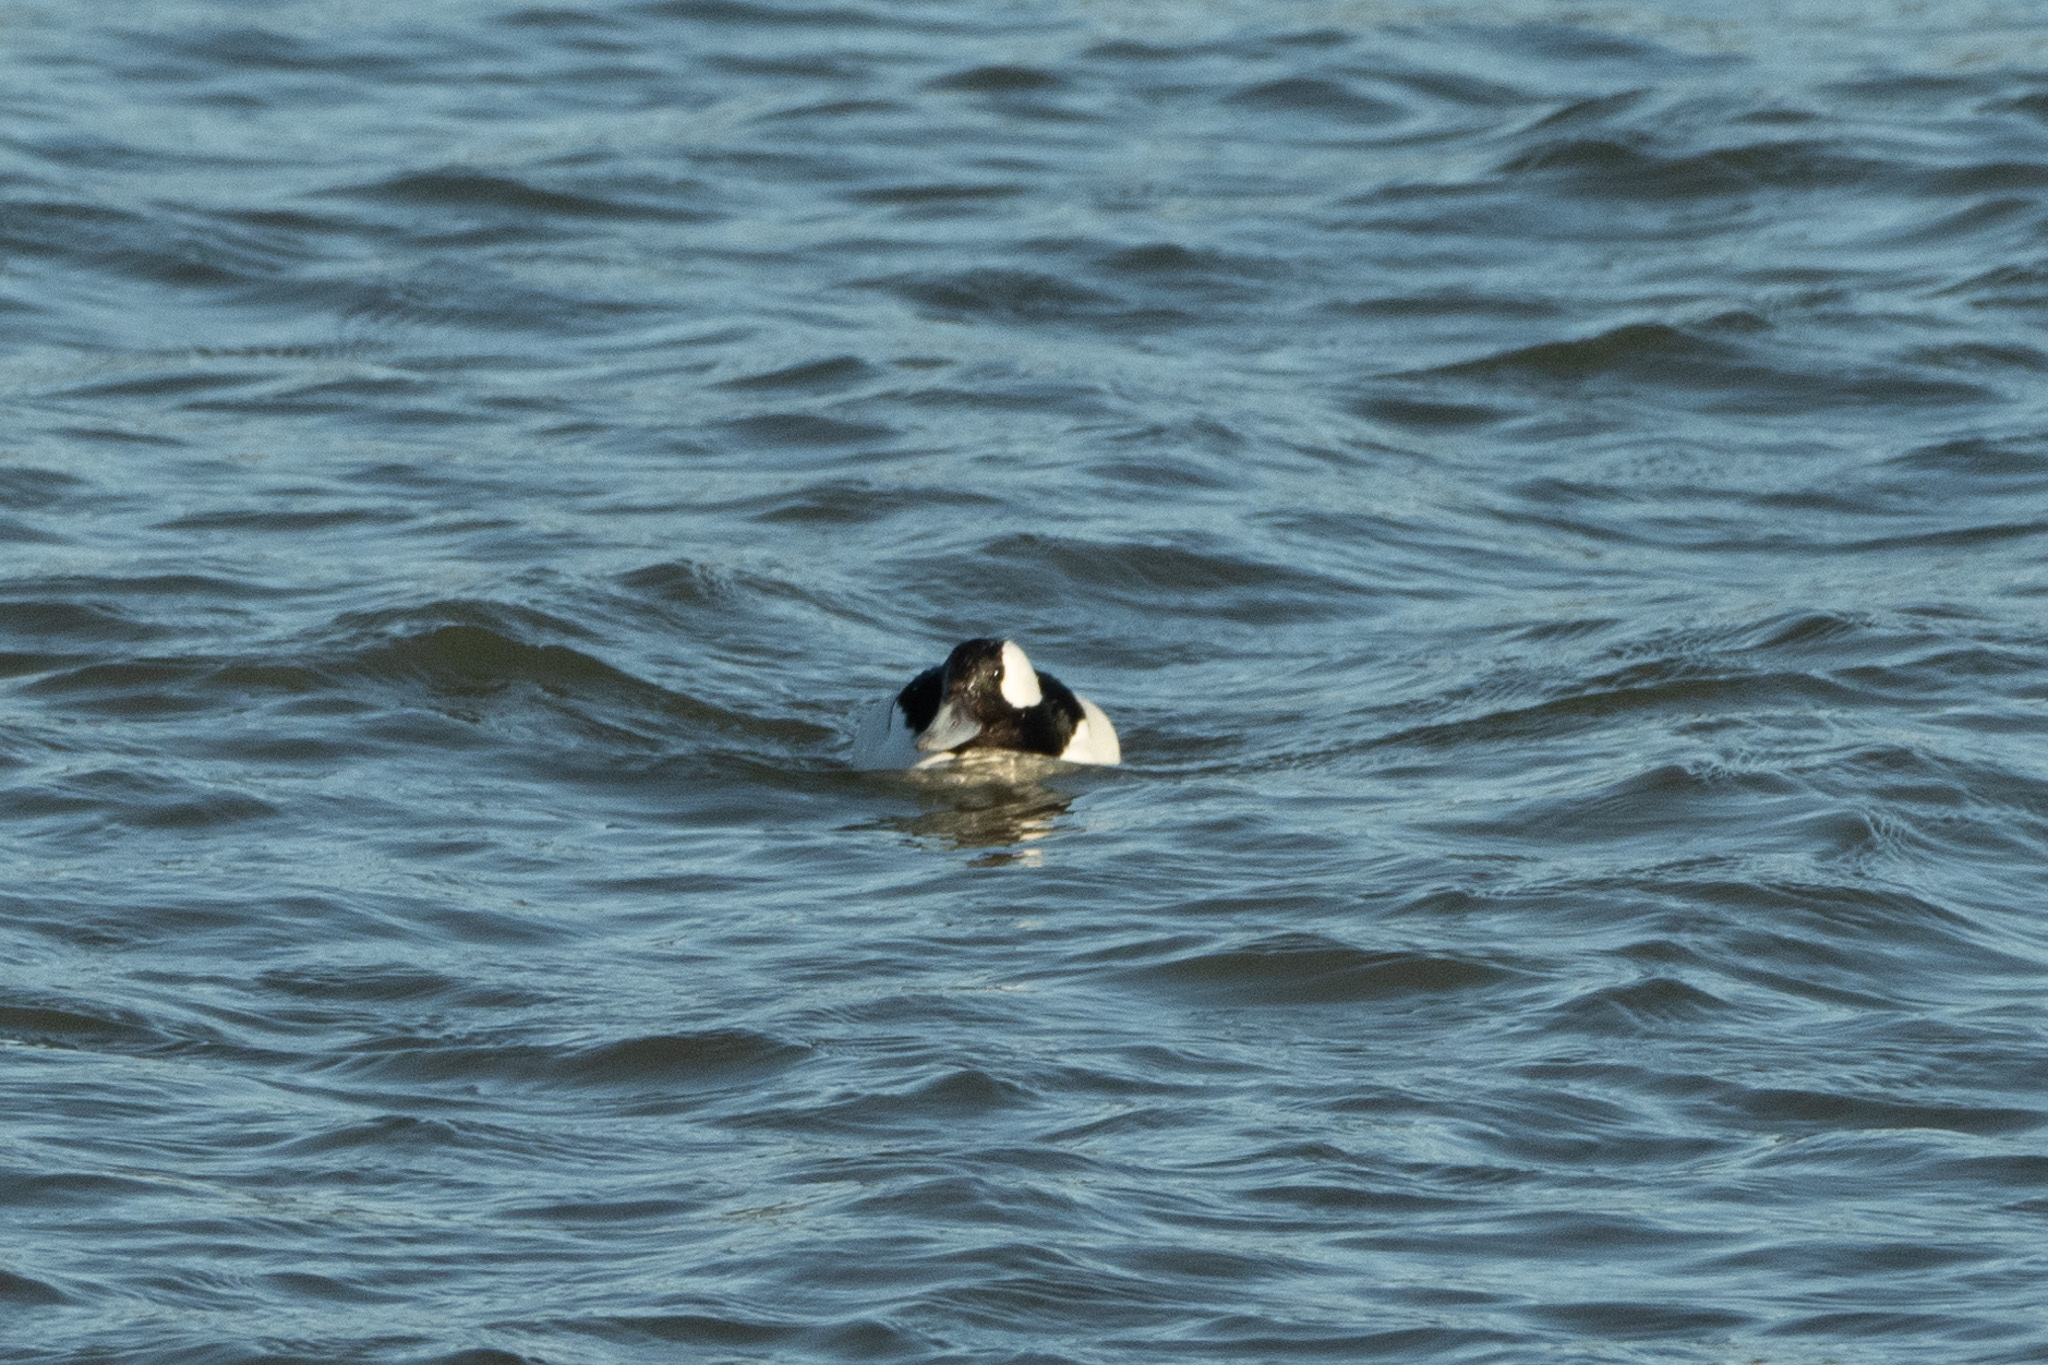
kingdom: Animalia
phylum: Chordata
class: Aves
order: Anseriformes
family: Anatidae
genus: Bucephala
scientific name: Bucephala albeola
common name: Bufflehead
